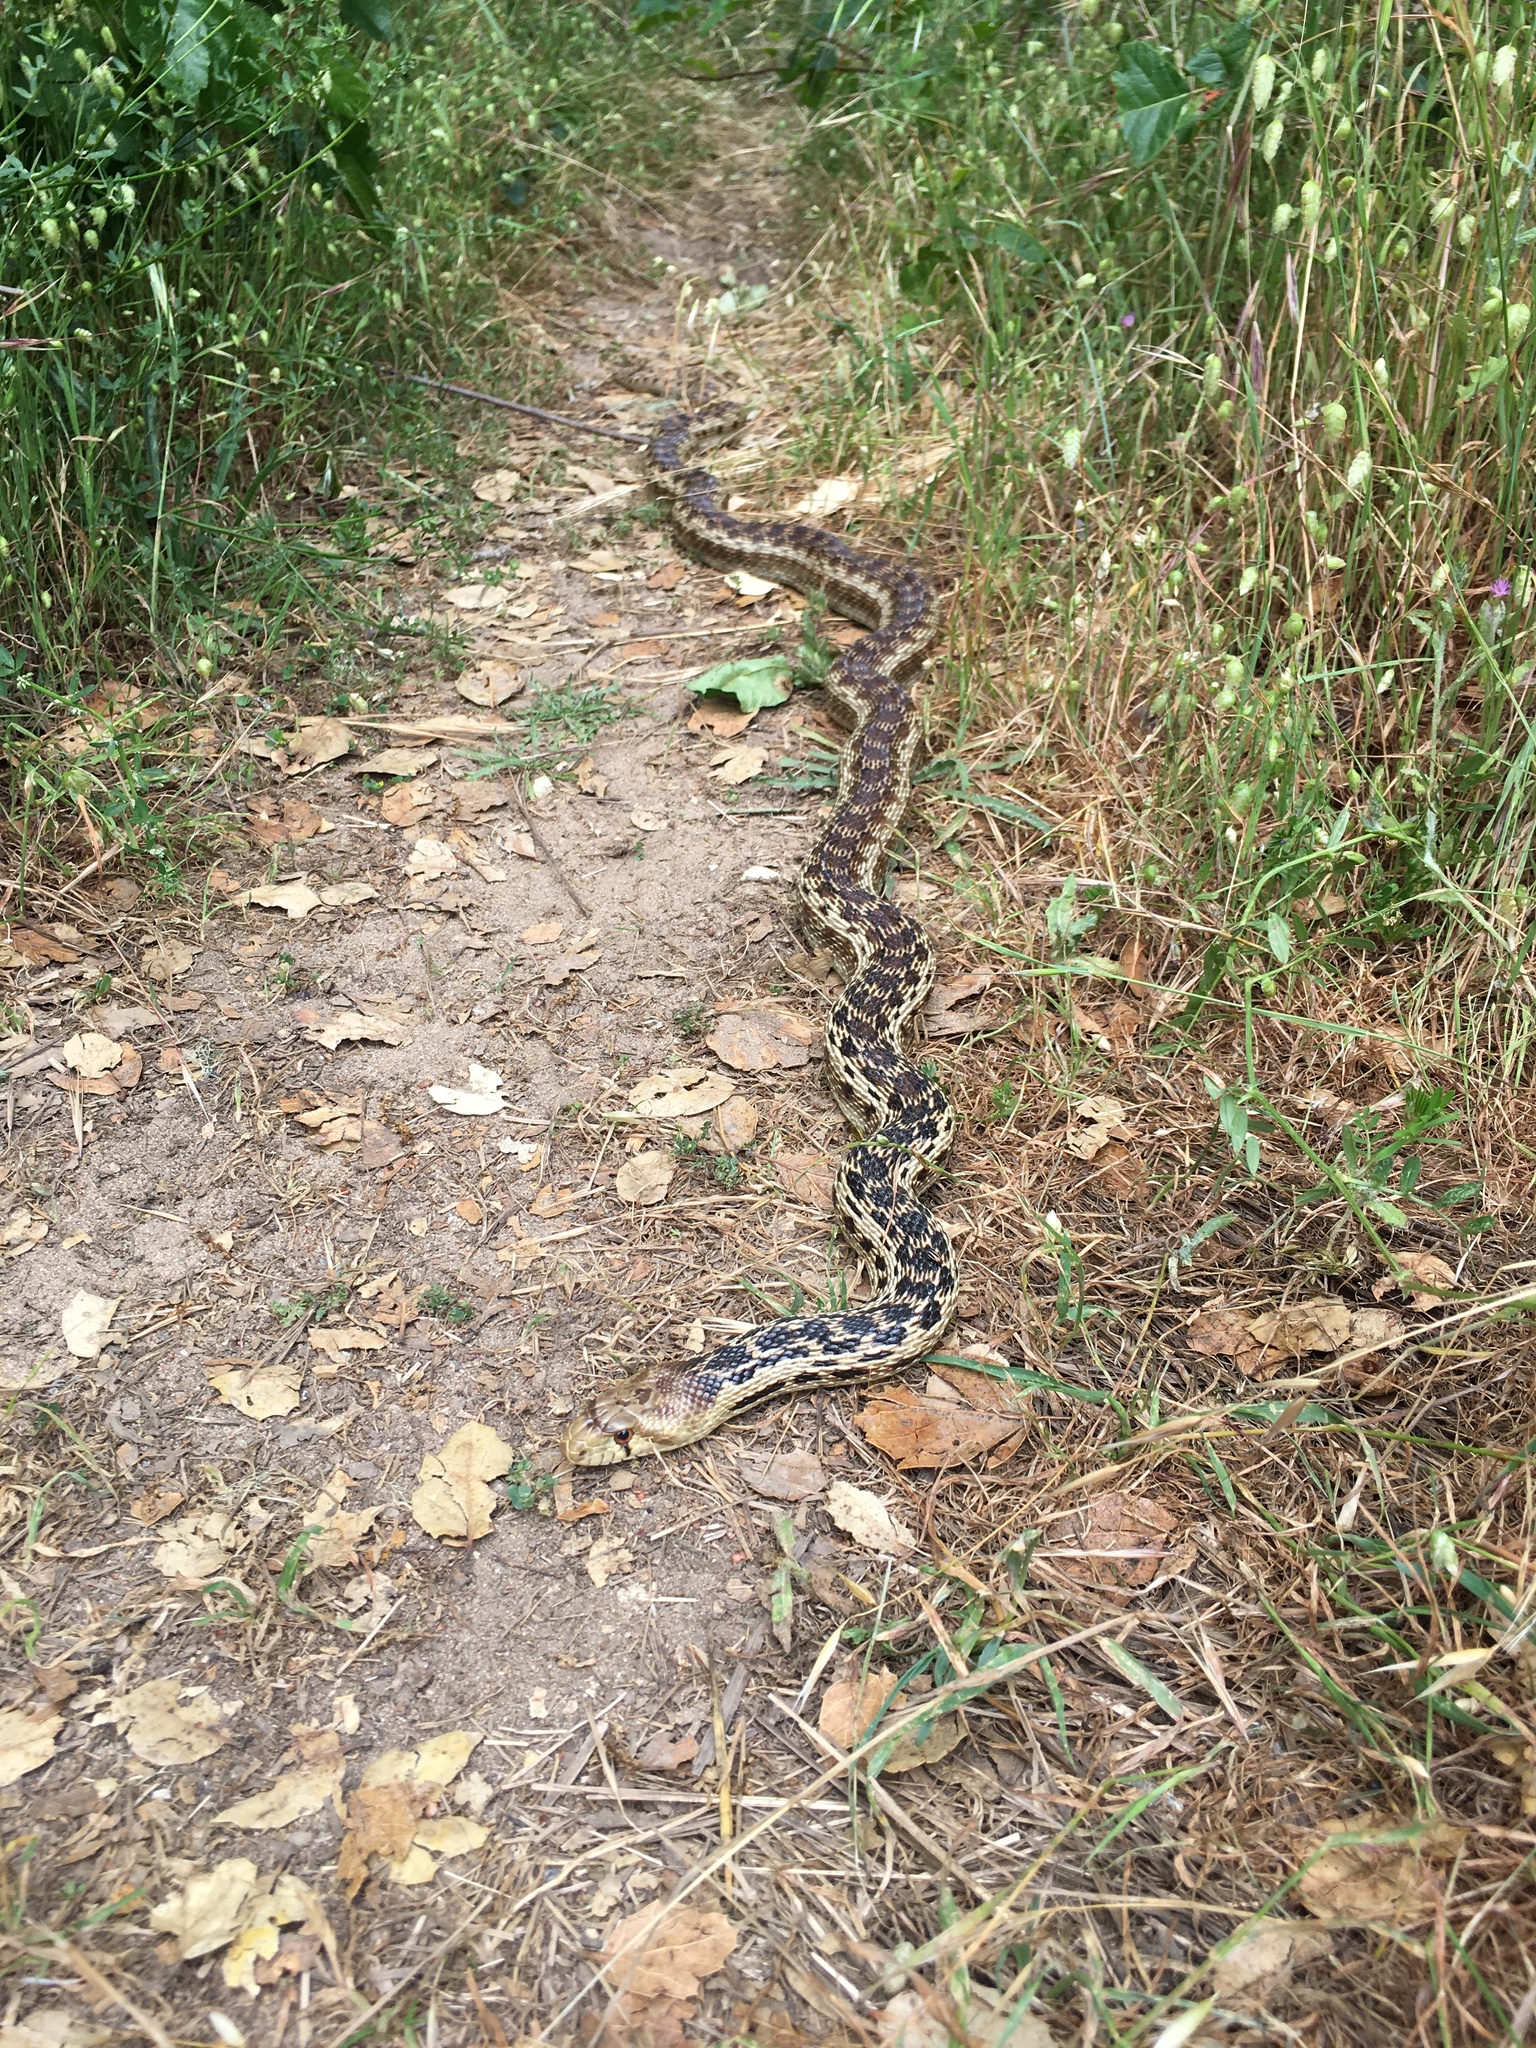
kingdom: Animalia
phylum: Chordata
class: Squamata
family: Colubridae
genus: Pituophis
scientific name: Pituophis catenifer
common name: Gopher snake
